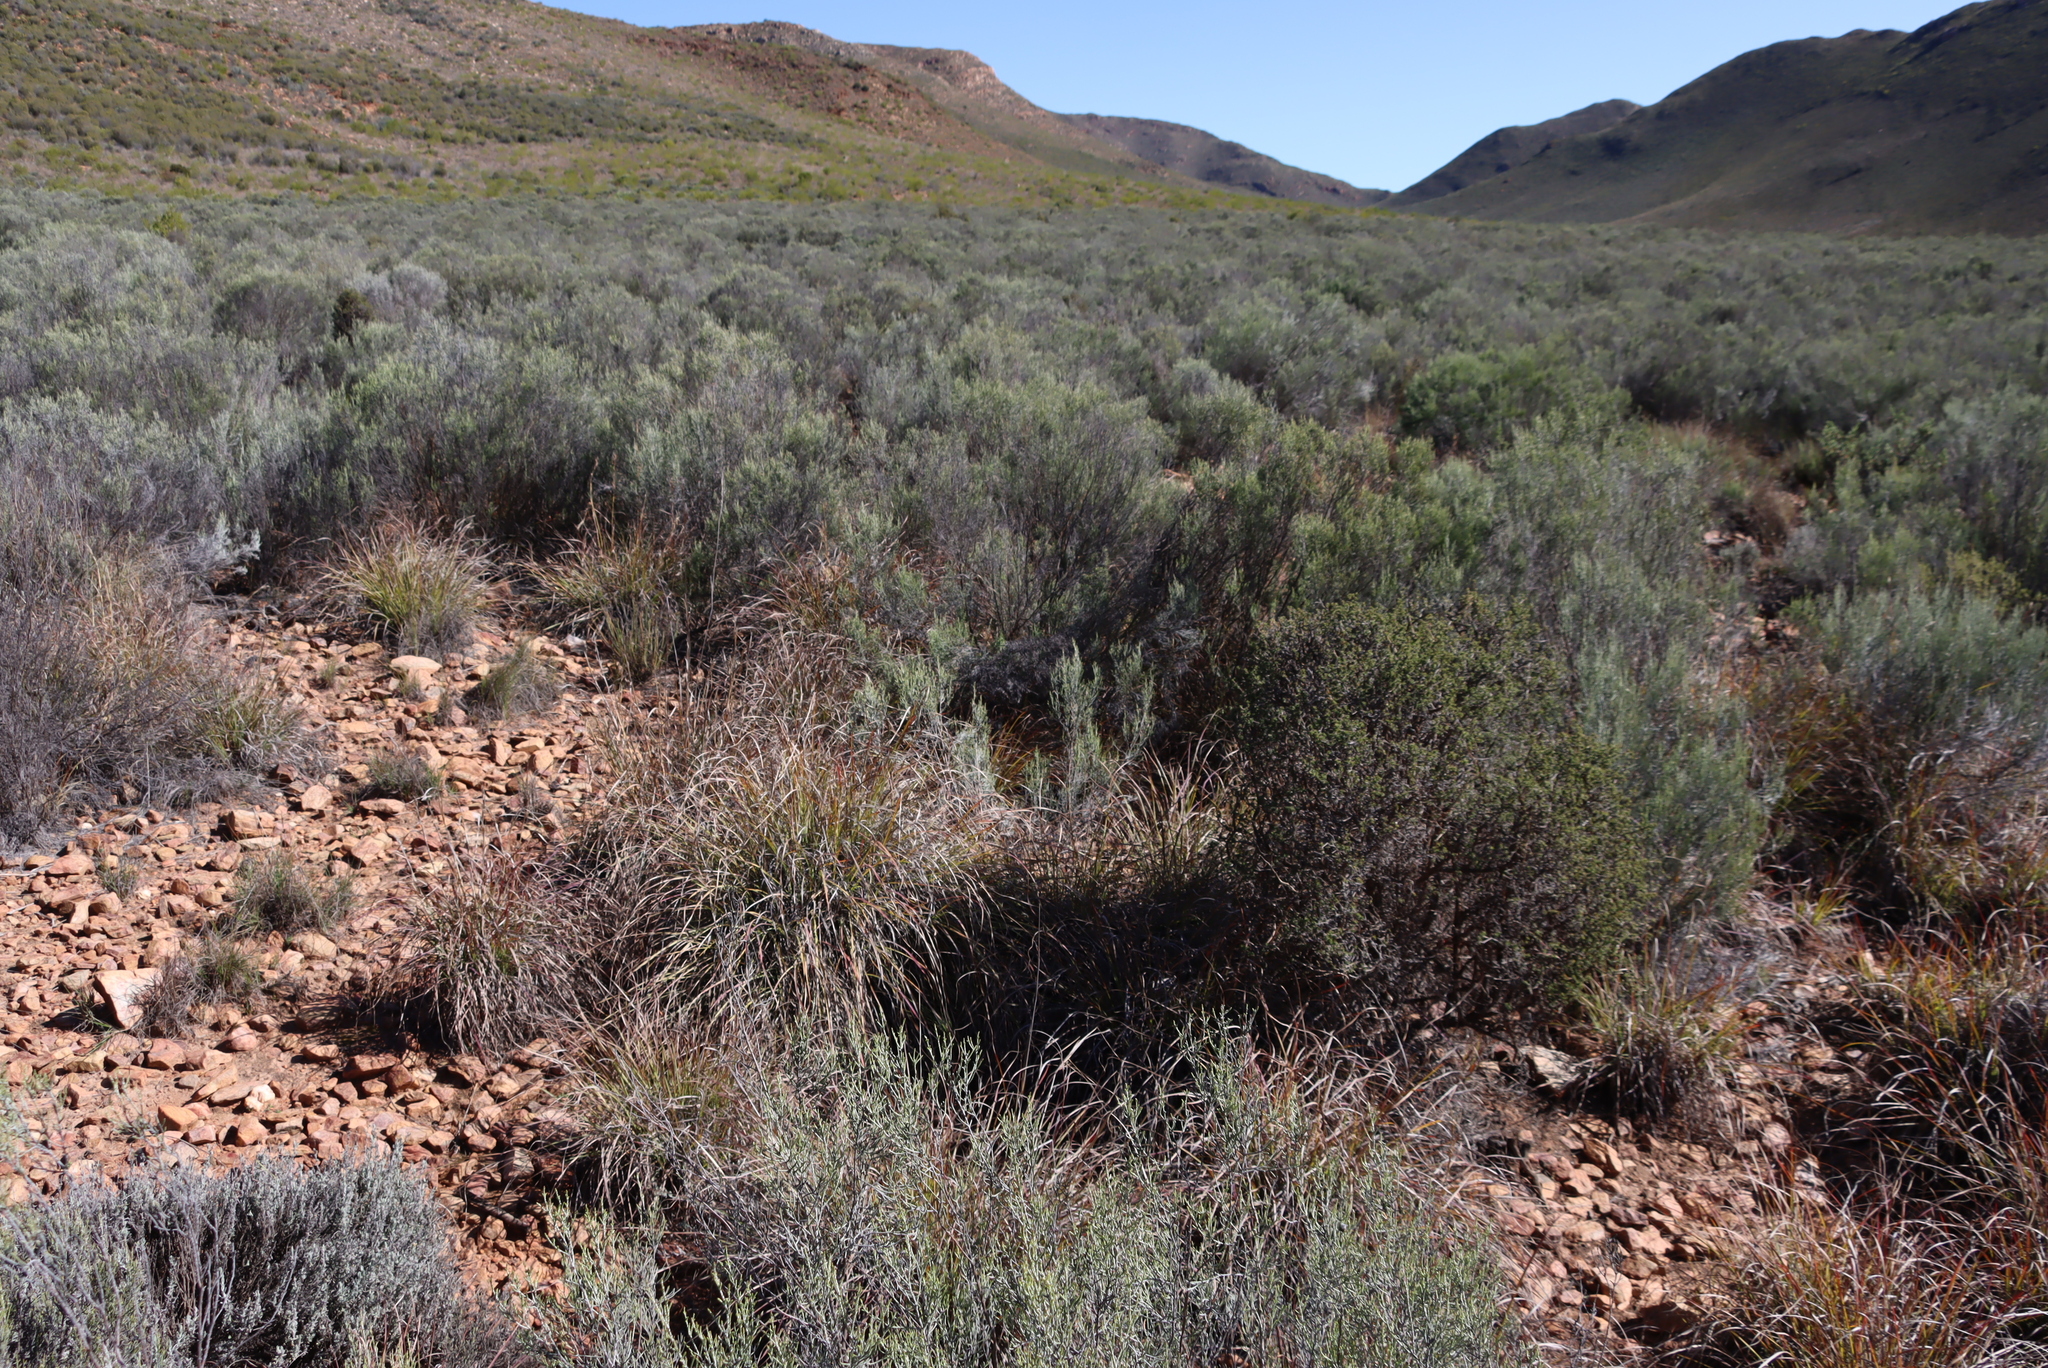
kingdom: Plantae
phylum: Tracheophyta
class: Magnoliopsida
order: Asterales
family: Asteraceae
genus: Dicerothamnus
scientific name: Dicerothamnus rhinocerotis
